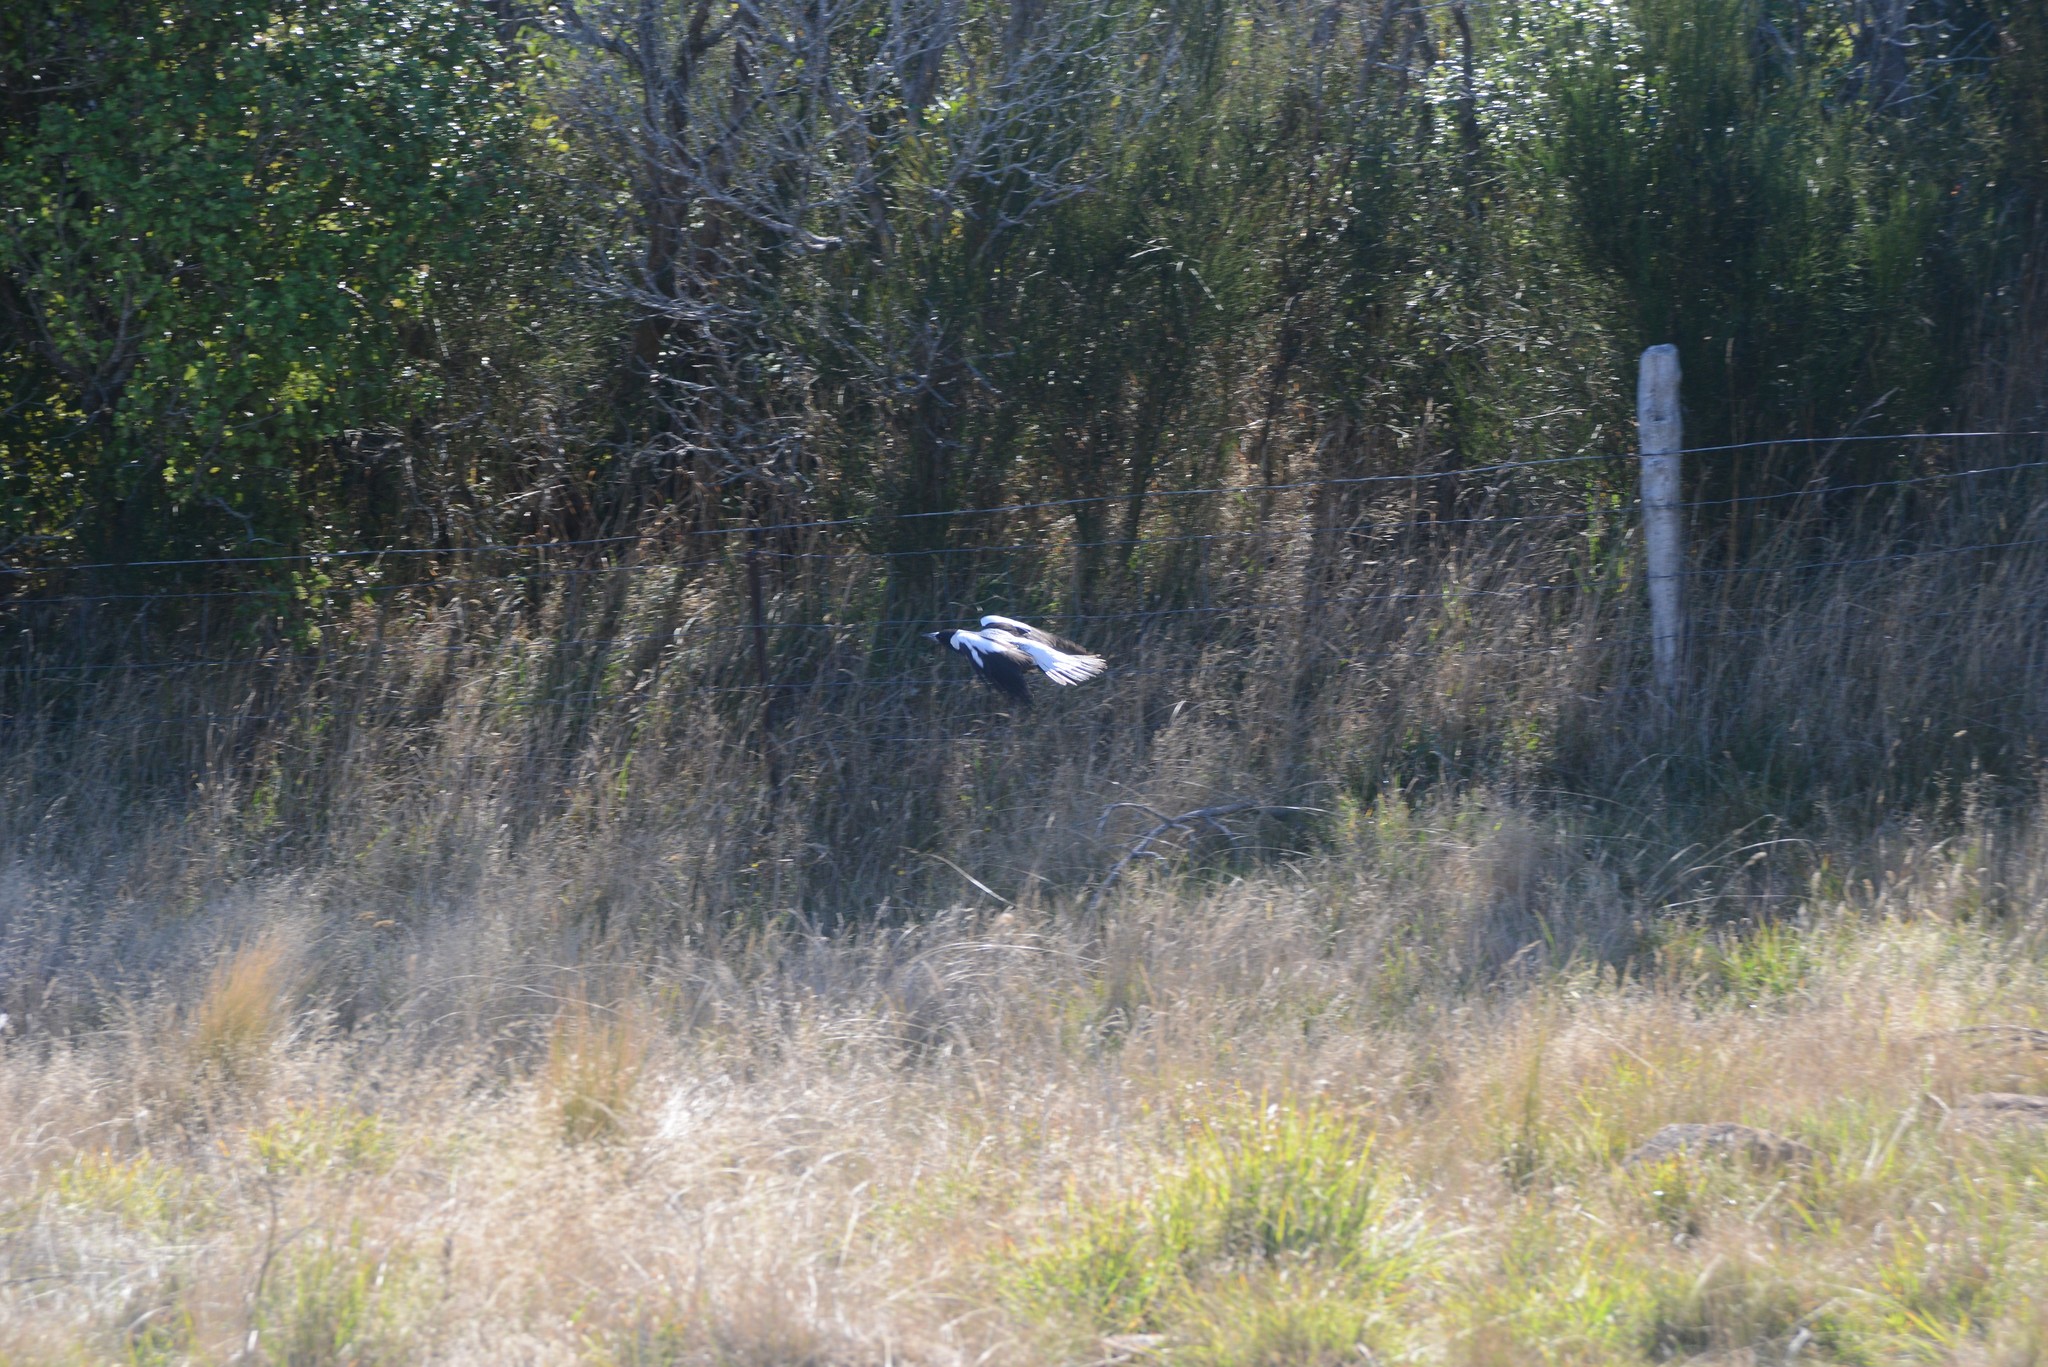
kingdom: Animalia
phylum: Chordata
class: Aves
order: Passeriformes
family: Cracticidae
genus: Gymnorhina
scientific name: Gymnorhina tibicen
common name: Australian magpie
